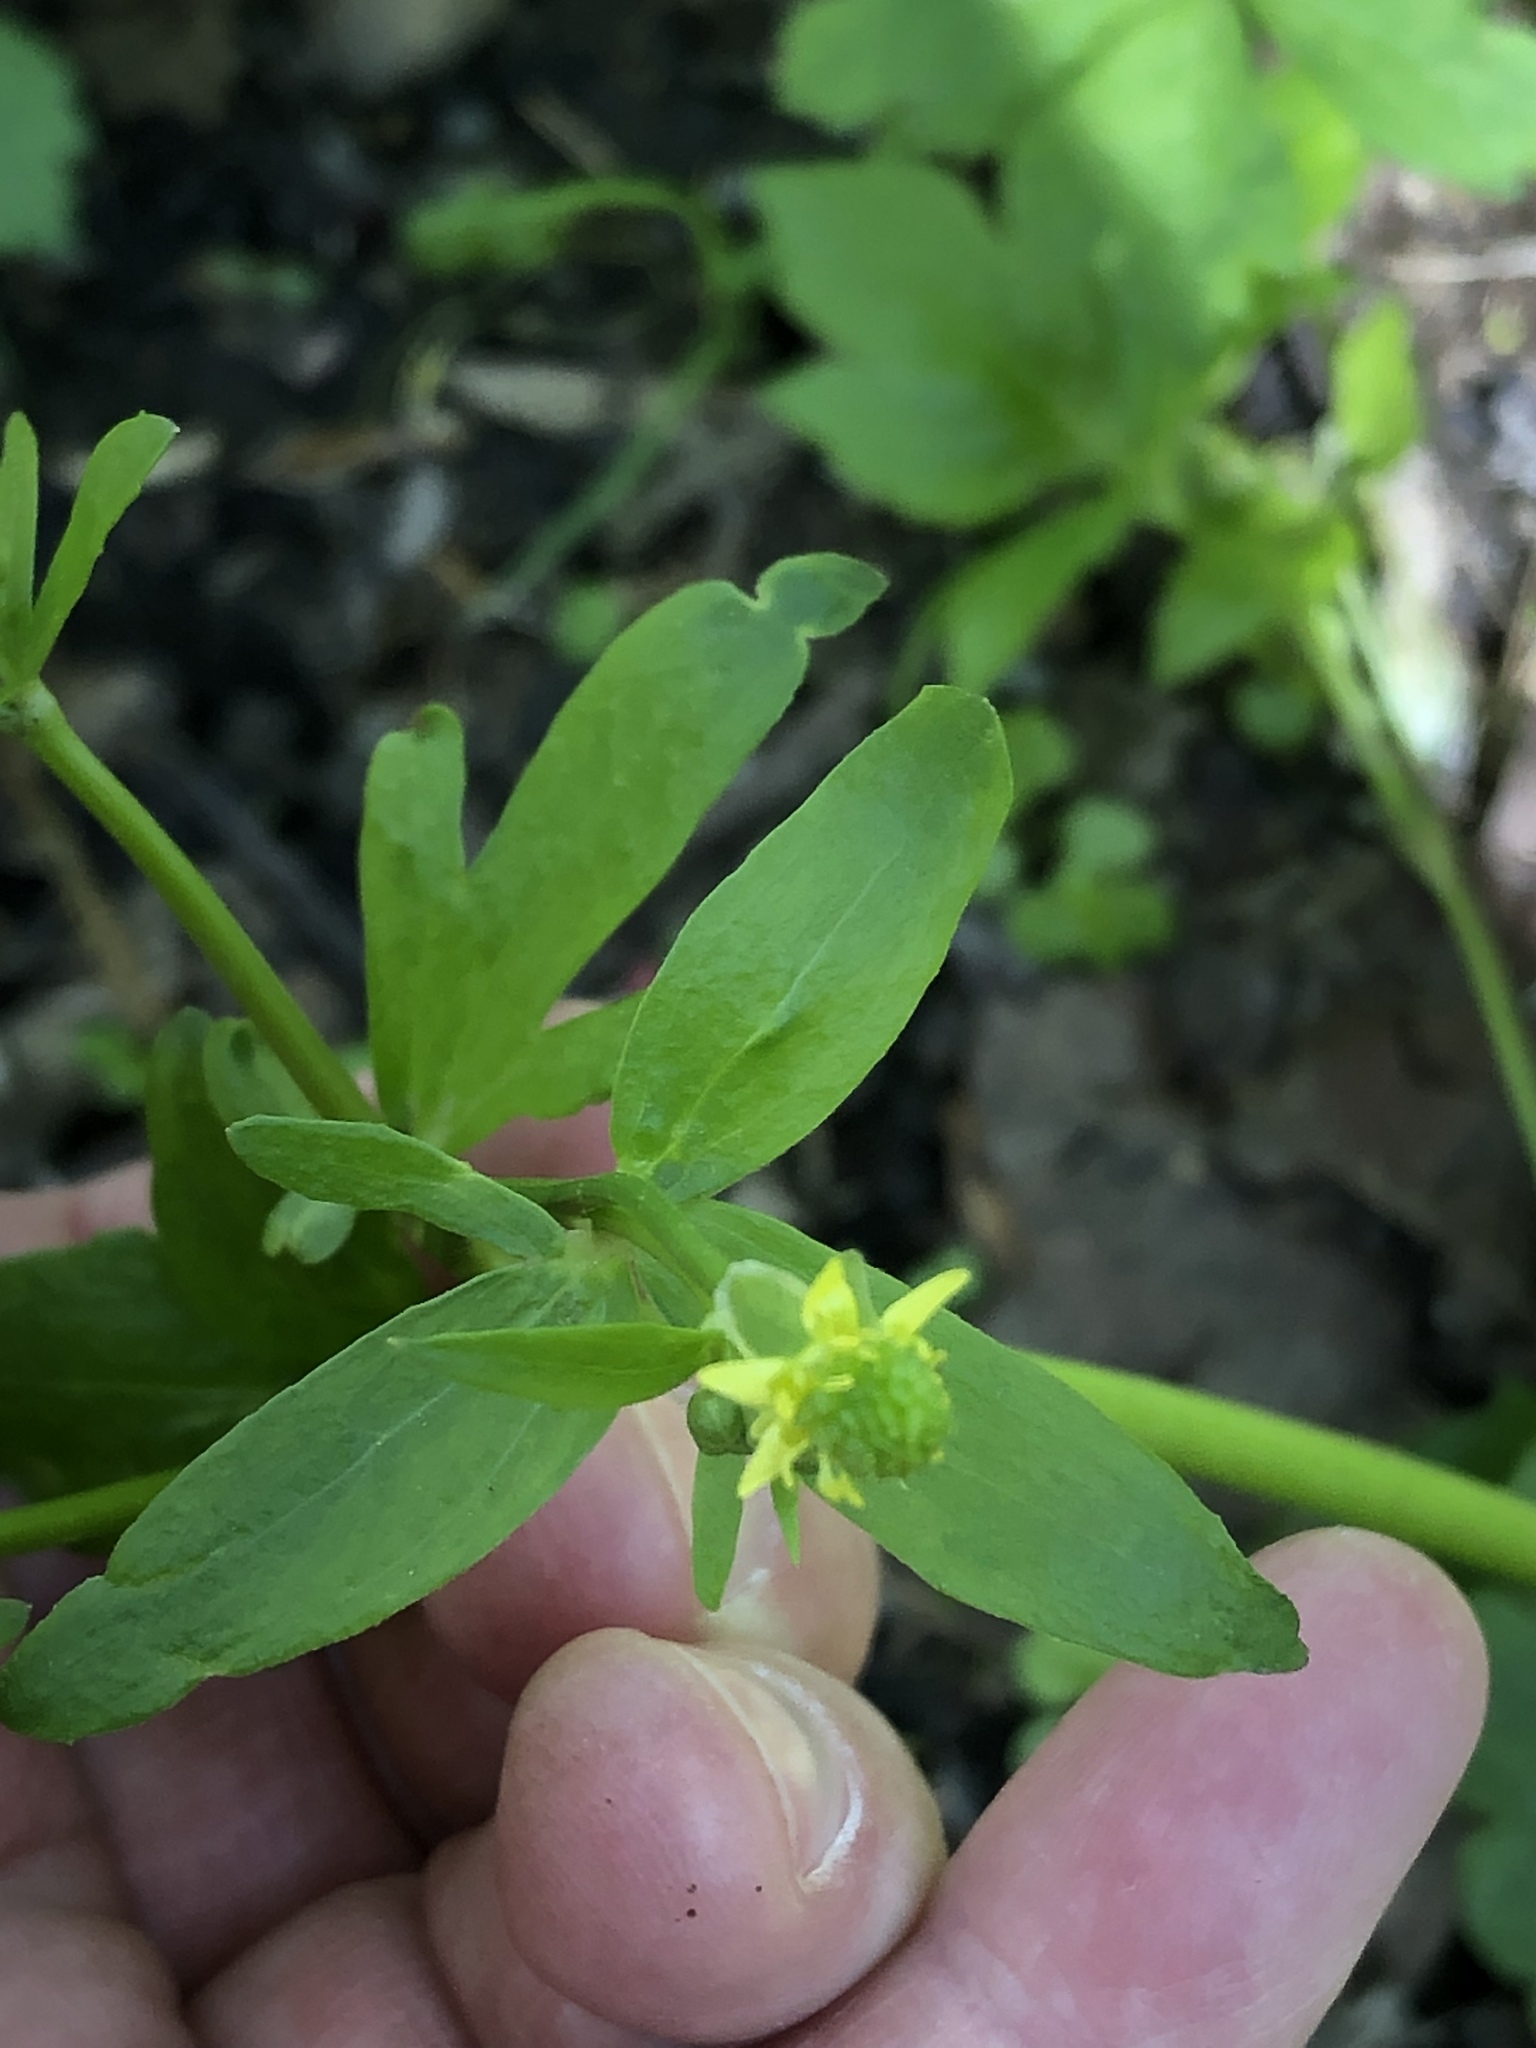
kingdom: Plantae
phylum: Tracheophyta
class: Magnoliopsida
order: Ranunculales
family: Ranunculaceae
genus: Ranunculus
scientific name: Ranunculus abortivus
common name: Early wood buttercup
